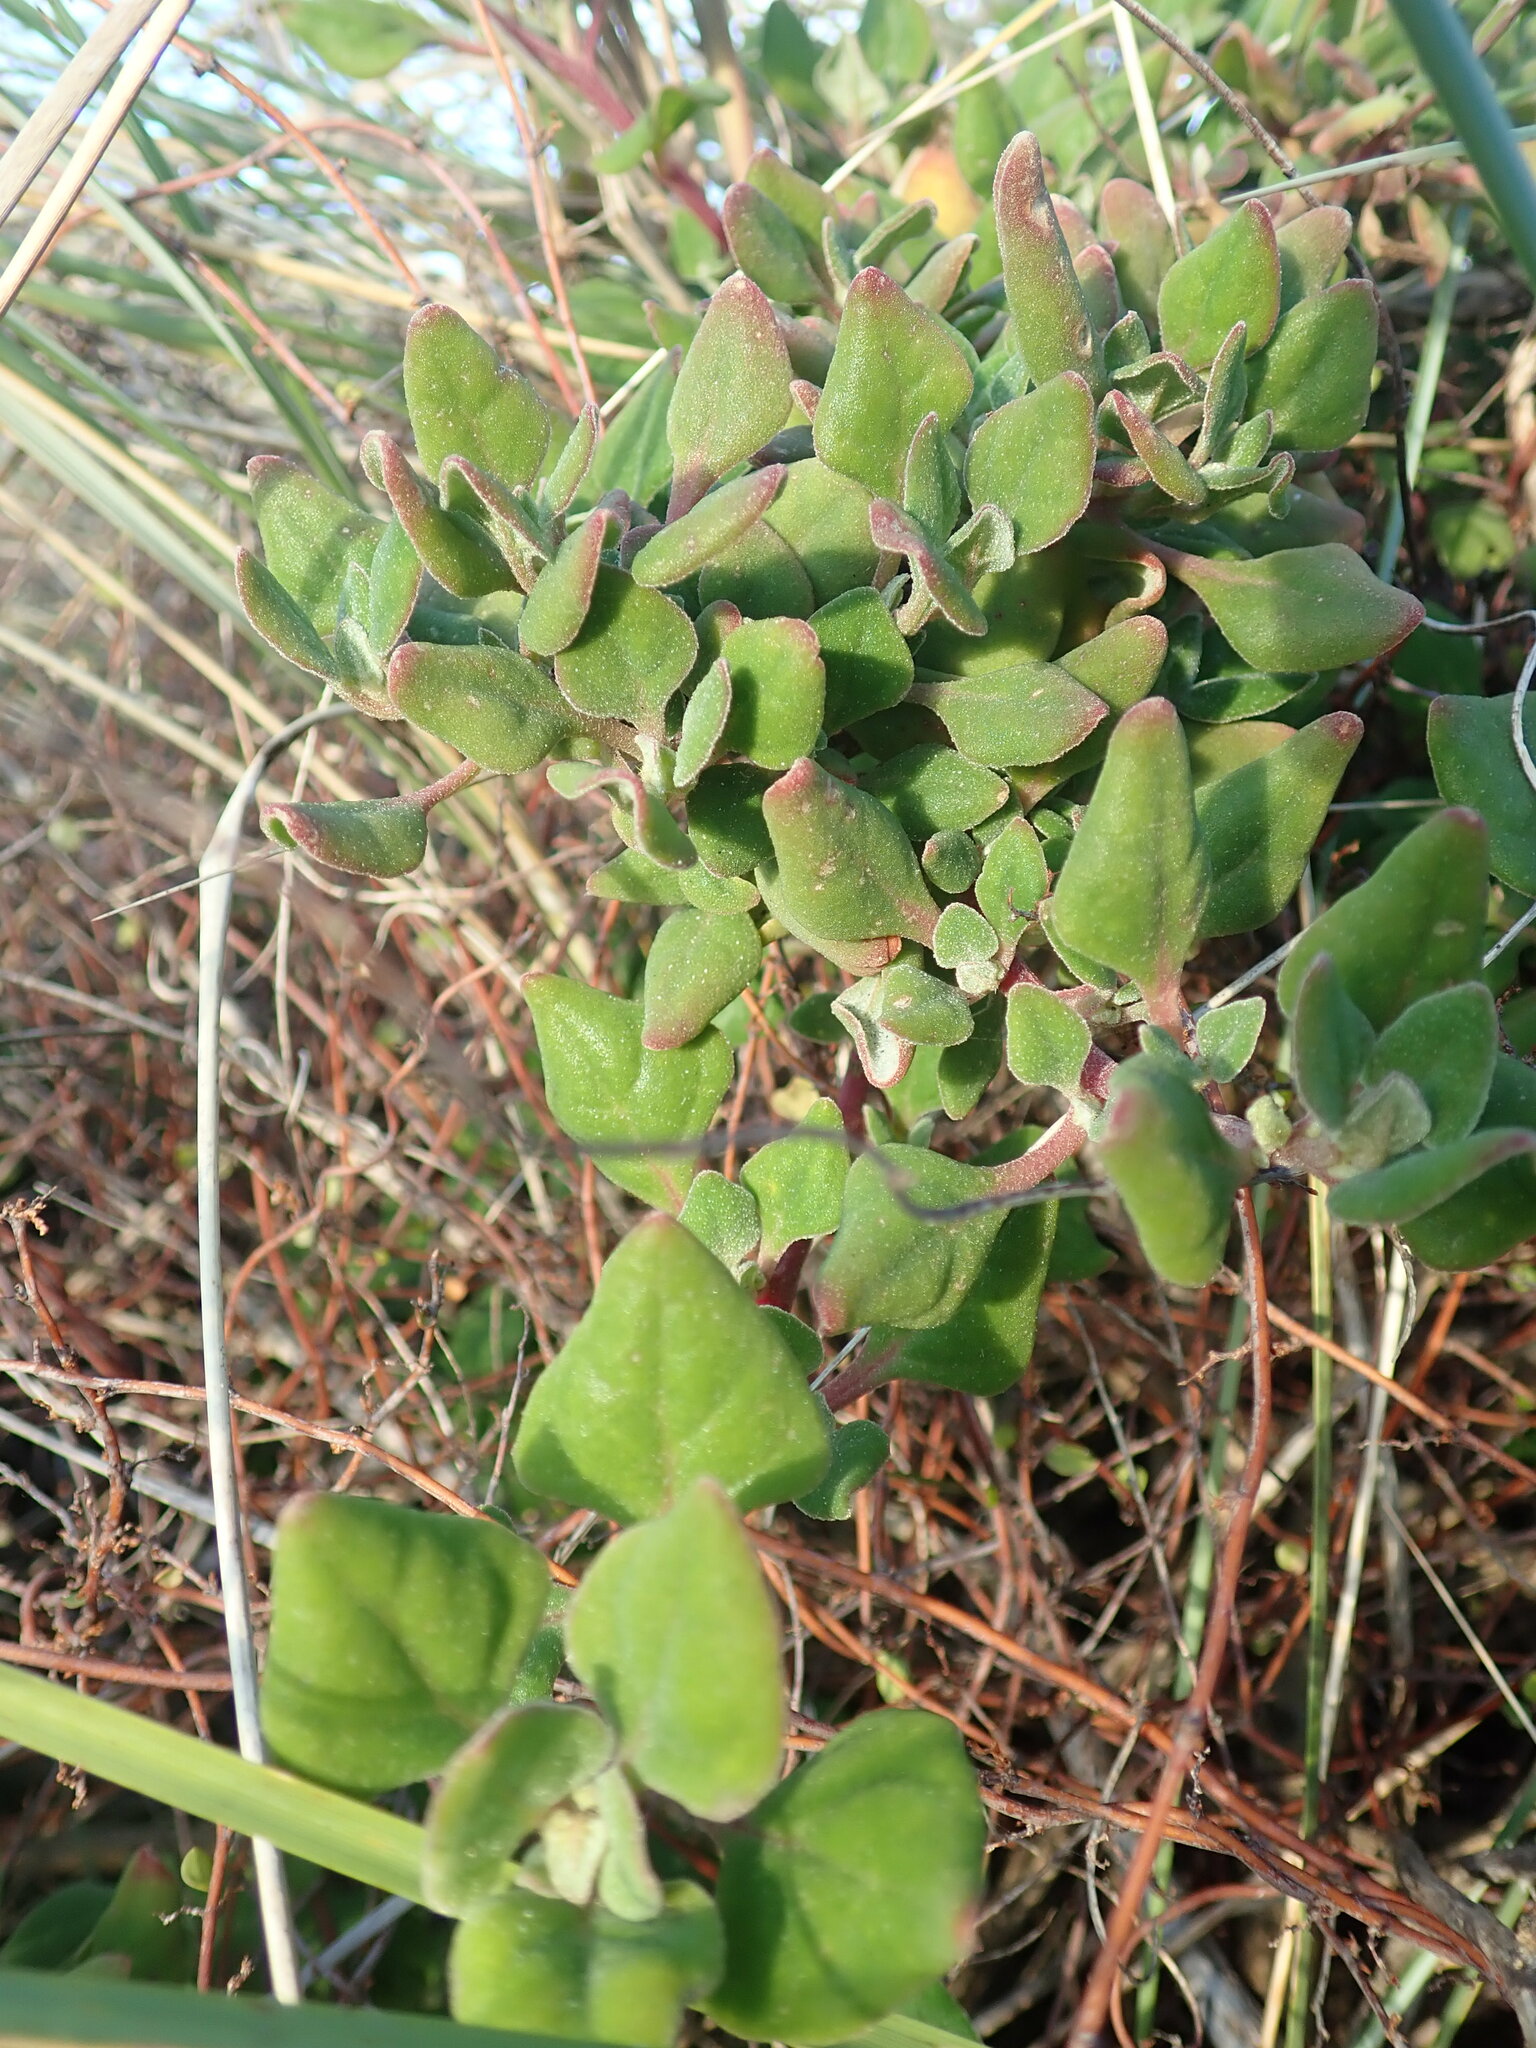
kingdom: Plantae
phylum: Tracheophyta
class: Magnoliopsida
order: Caryophyllales
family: Aizoaceae
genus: Tetragonia
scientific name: Tetragonia implexicoma
